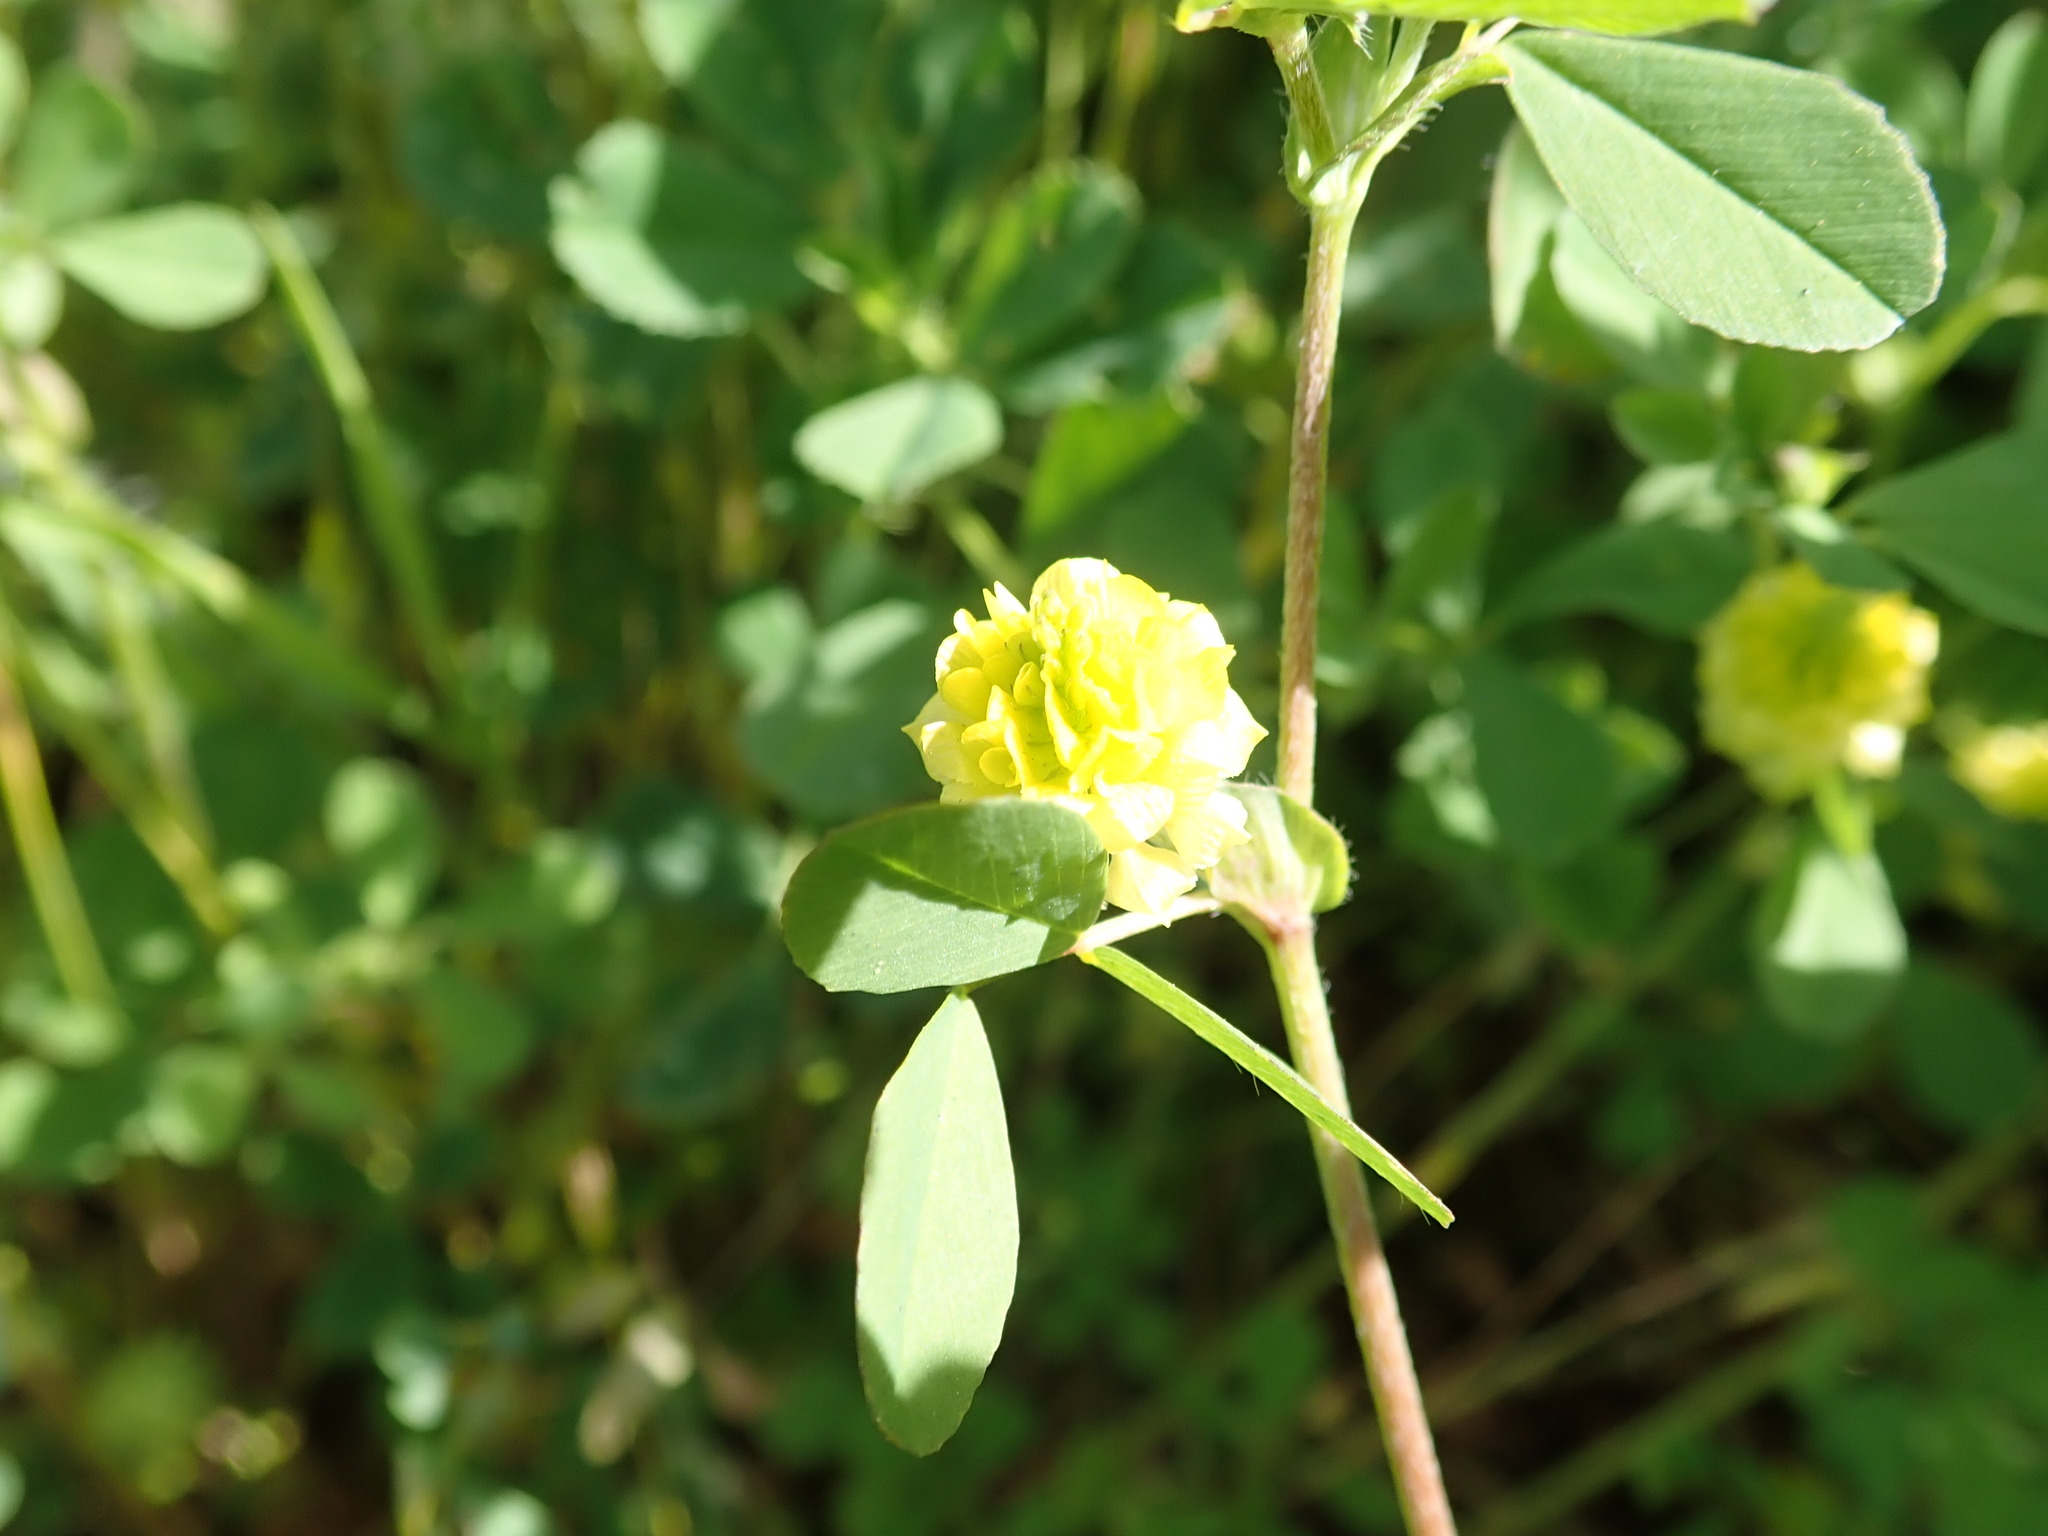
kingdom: Plantae
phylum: Tracheophyta
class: Magnoliopsida
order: Fabales
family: Fabaceae
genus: Trifolium
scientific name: Trifolium campestre
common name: Field clover
